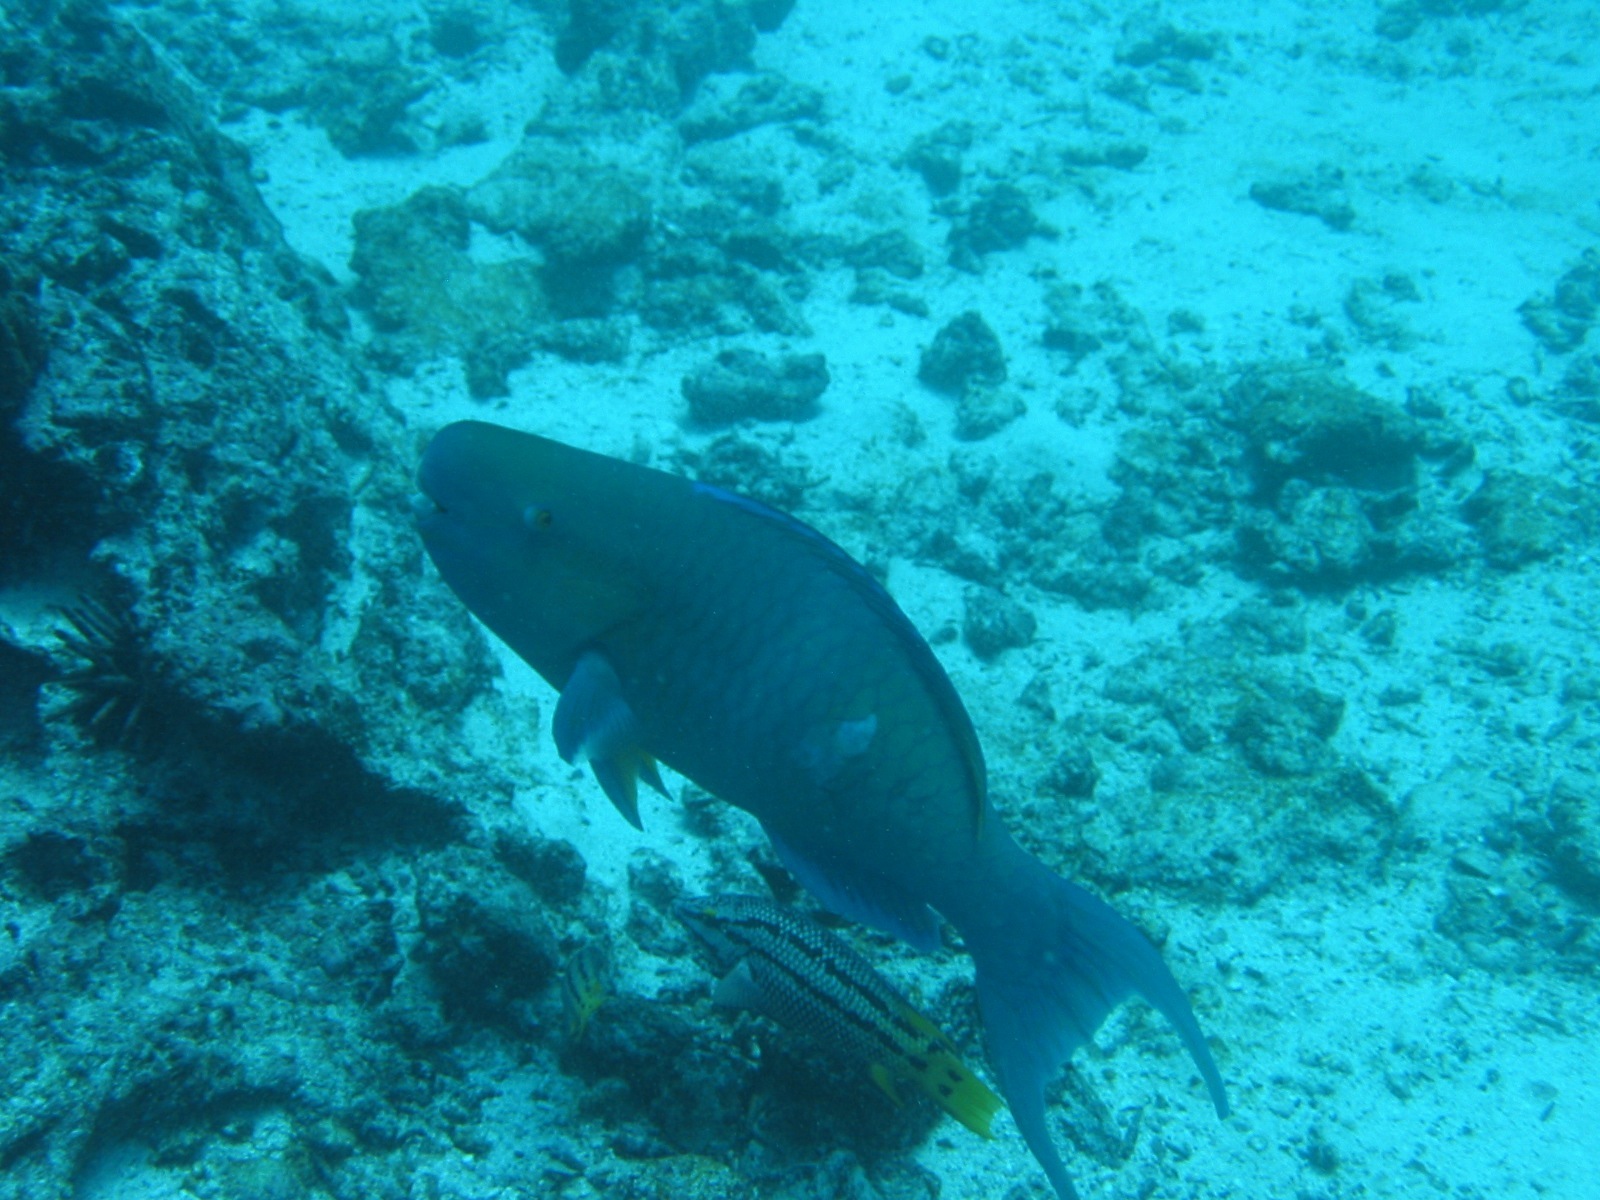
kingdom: Animalia
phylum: Chordata
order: Perciformes
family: Scaridae
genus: Scarus
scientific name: Scarus rubroviolaceus
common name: Ember parrotfish
